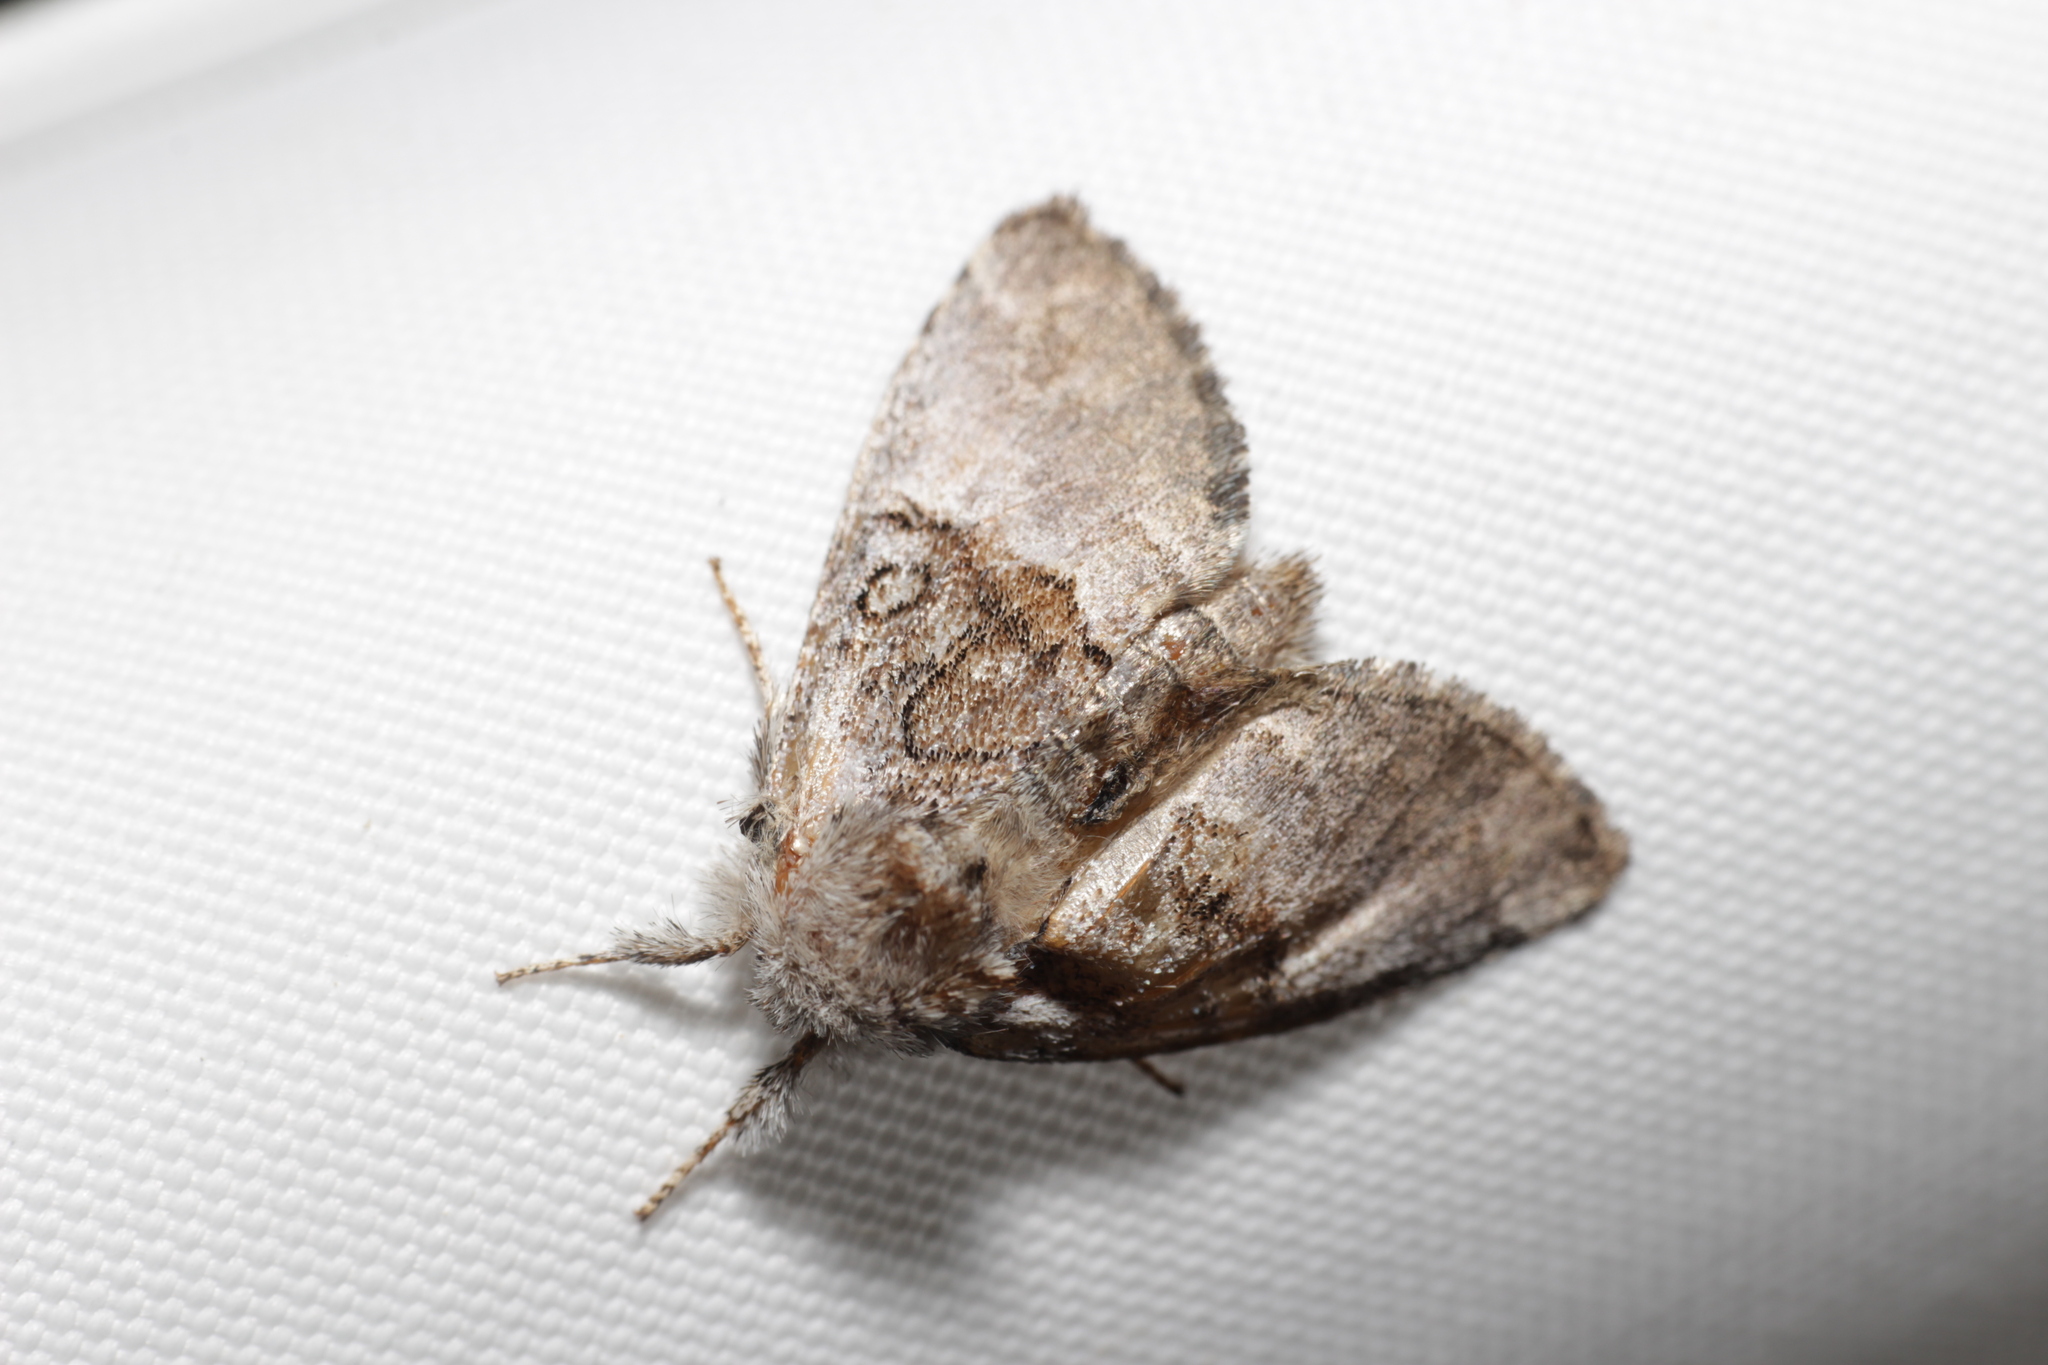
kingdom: Animalia
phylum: Arthropoda
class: Insecta
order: Lepidoptera
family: Noctuidae
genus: Colocasia
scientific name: Colocasia coryli
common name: Nut-tree tussock
